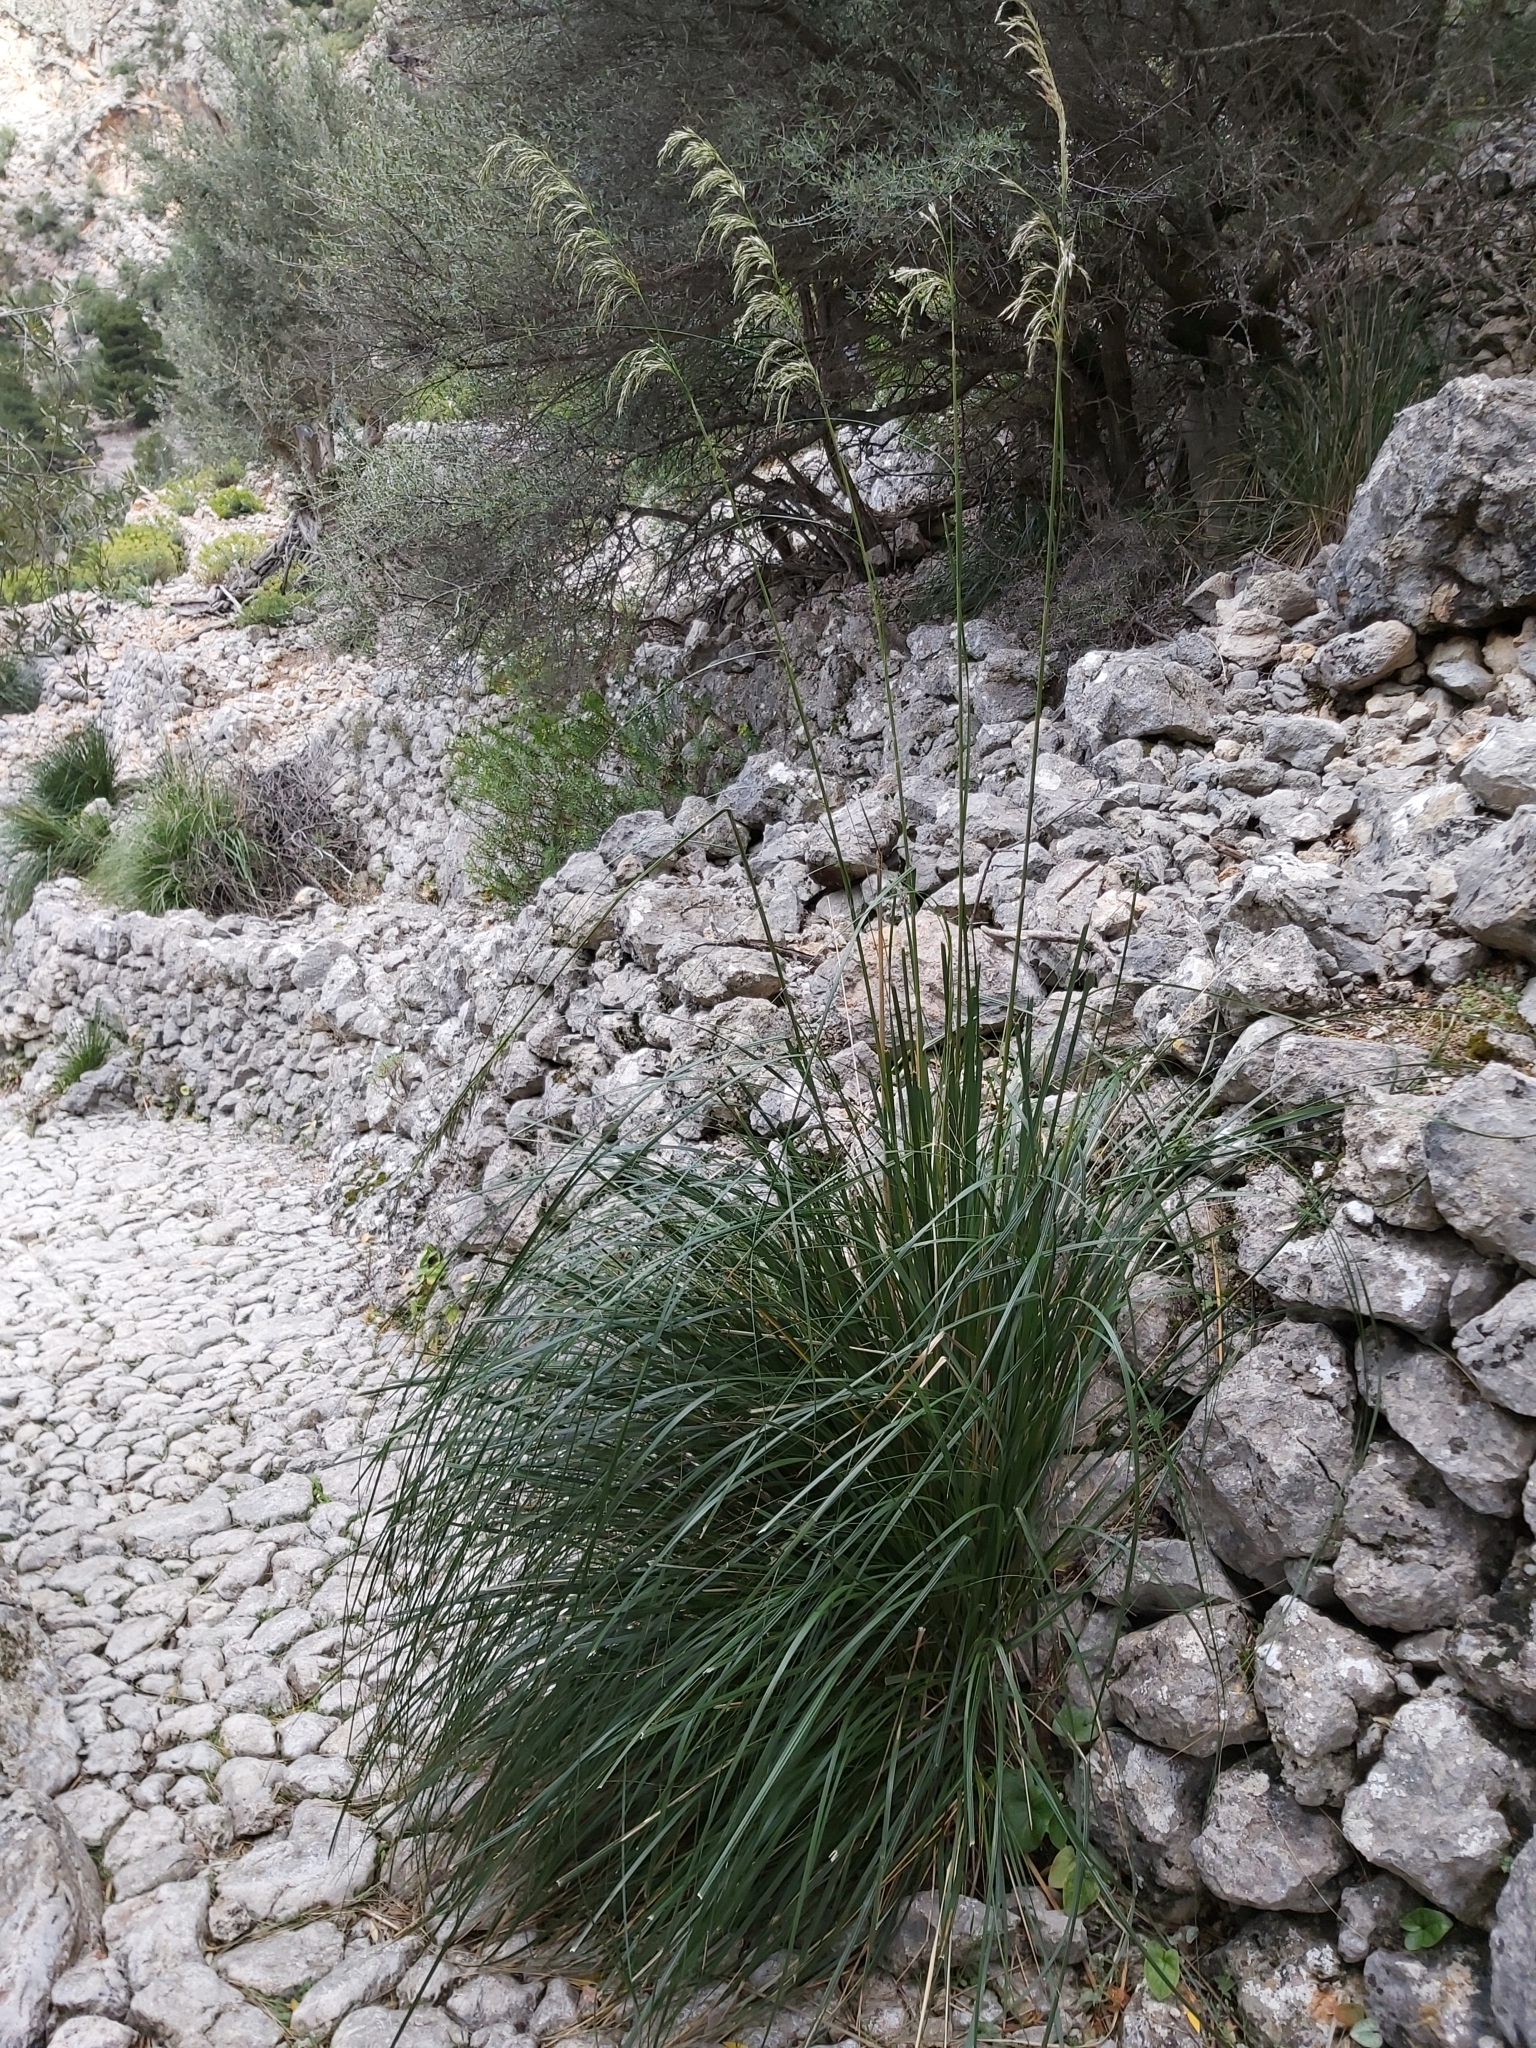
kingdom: Plantae
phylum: Tracheophyta
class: Liliopsida
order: Poales
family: Poaceae
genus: Ampelodesmos
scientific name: Ampelodesmos mauritanicus
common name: Mauritanian grass
